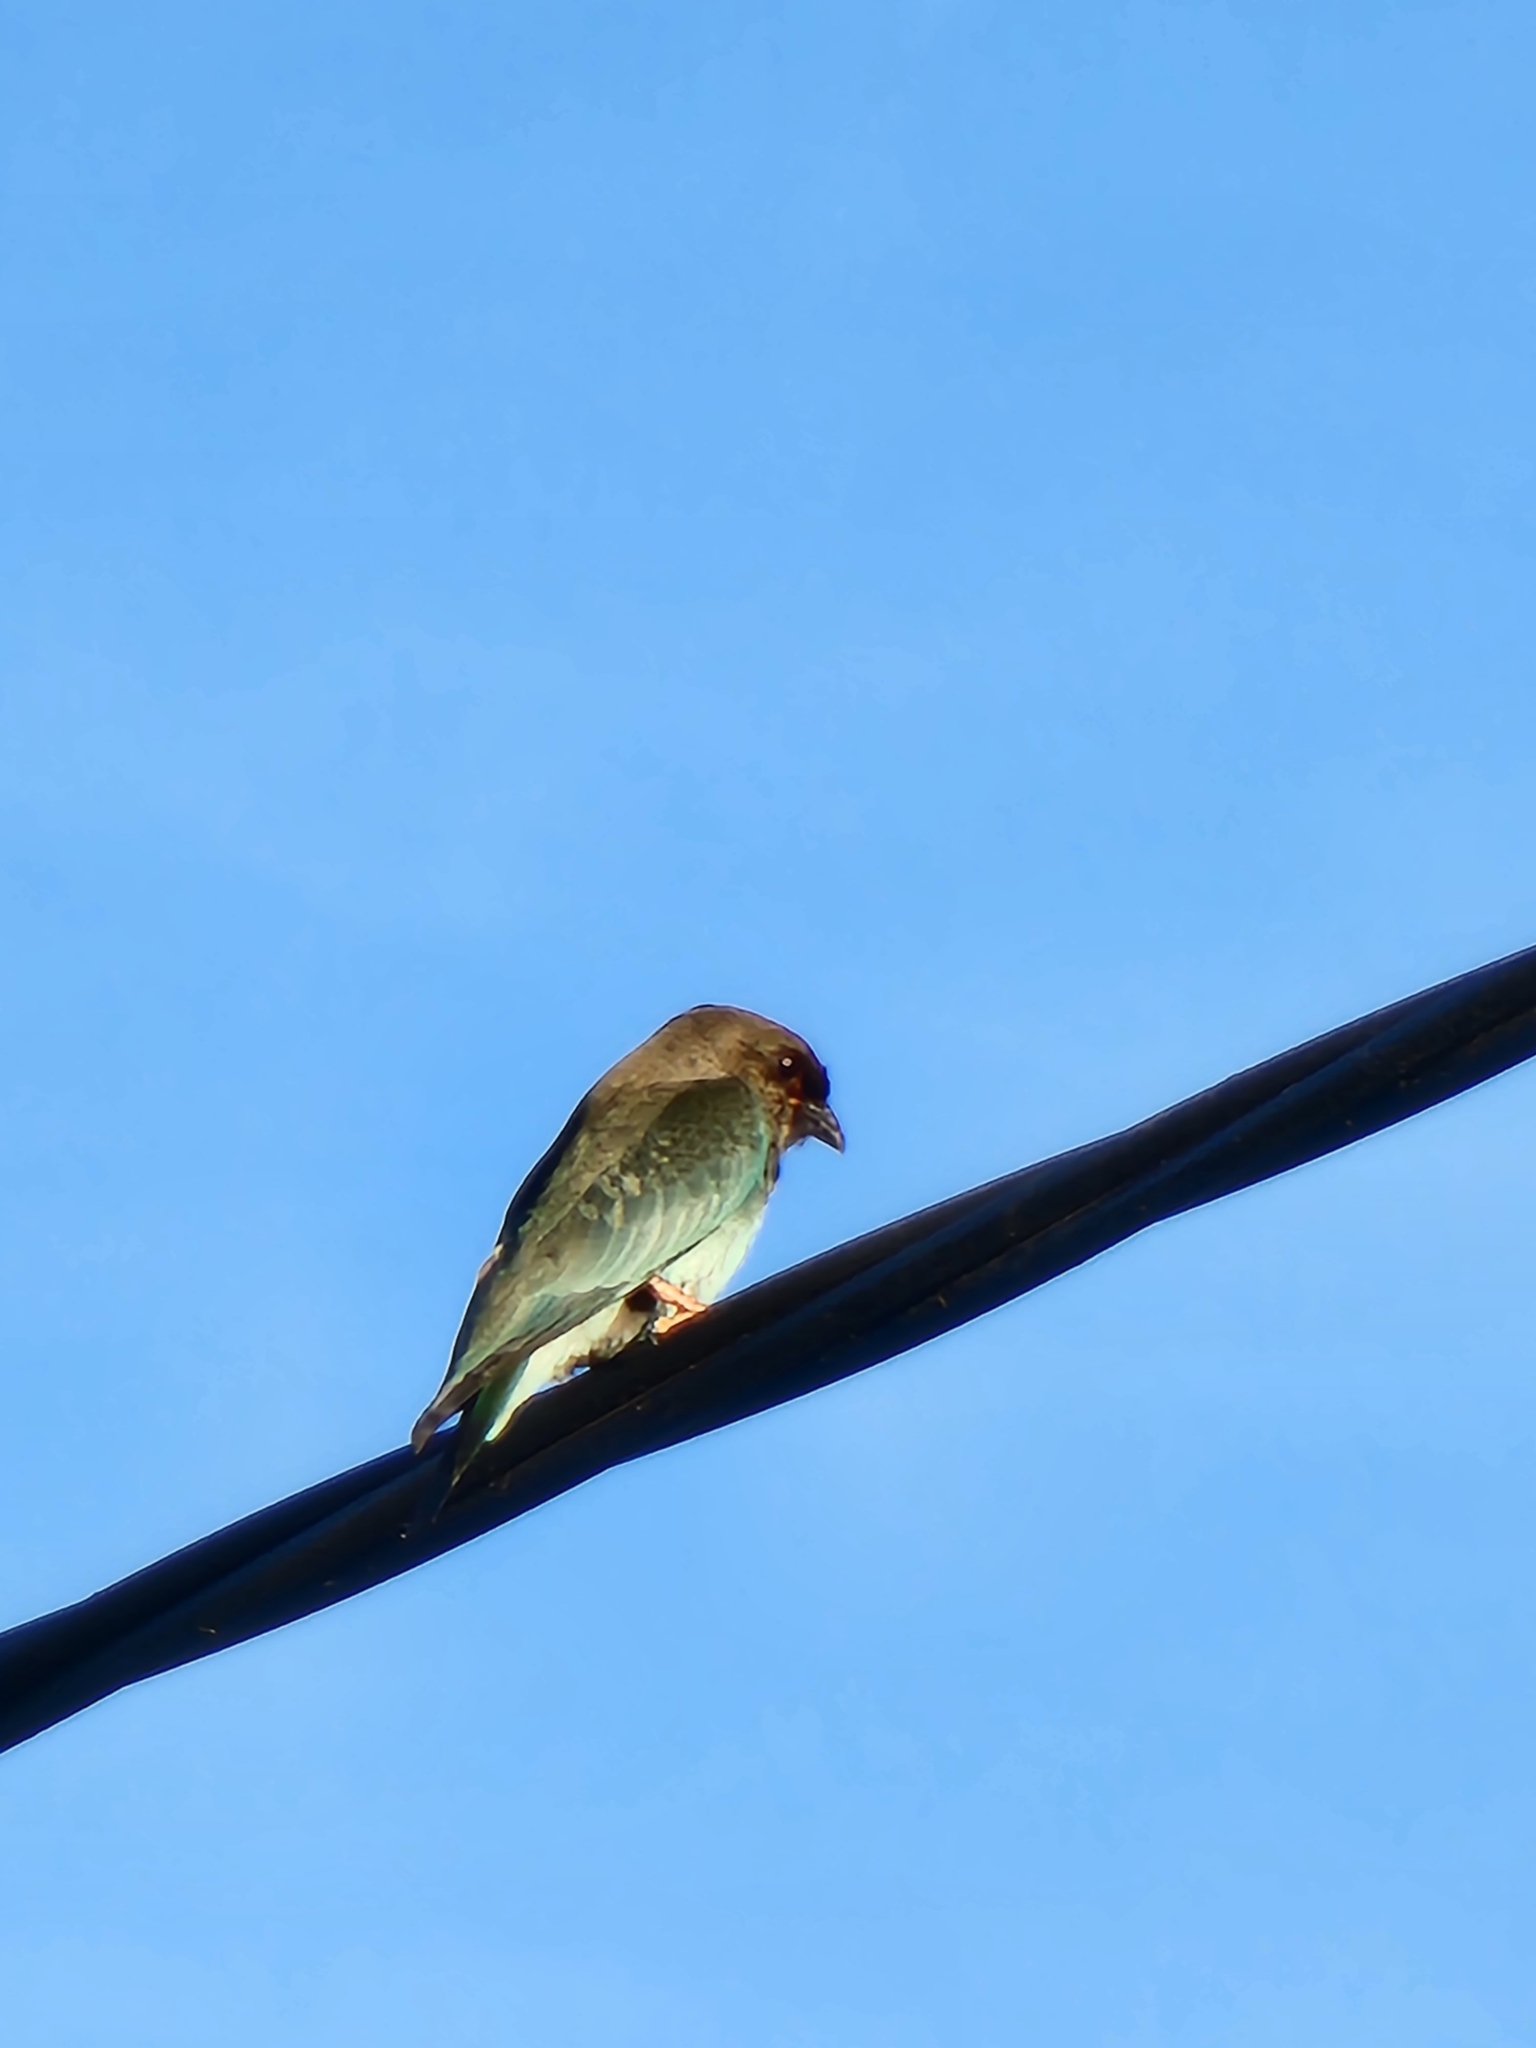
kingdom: Animalia
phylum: Chordata
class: Aves
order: Coraciiformes
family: Coraciidae
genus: Eurystomus
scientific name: Eurystomus orientalis
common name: Oriental dollarbird
